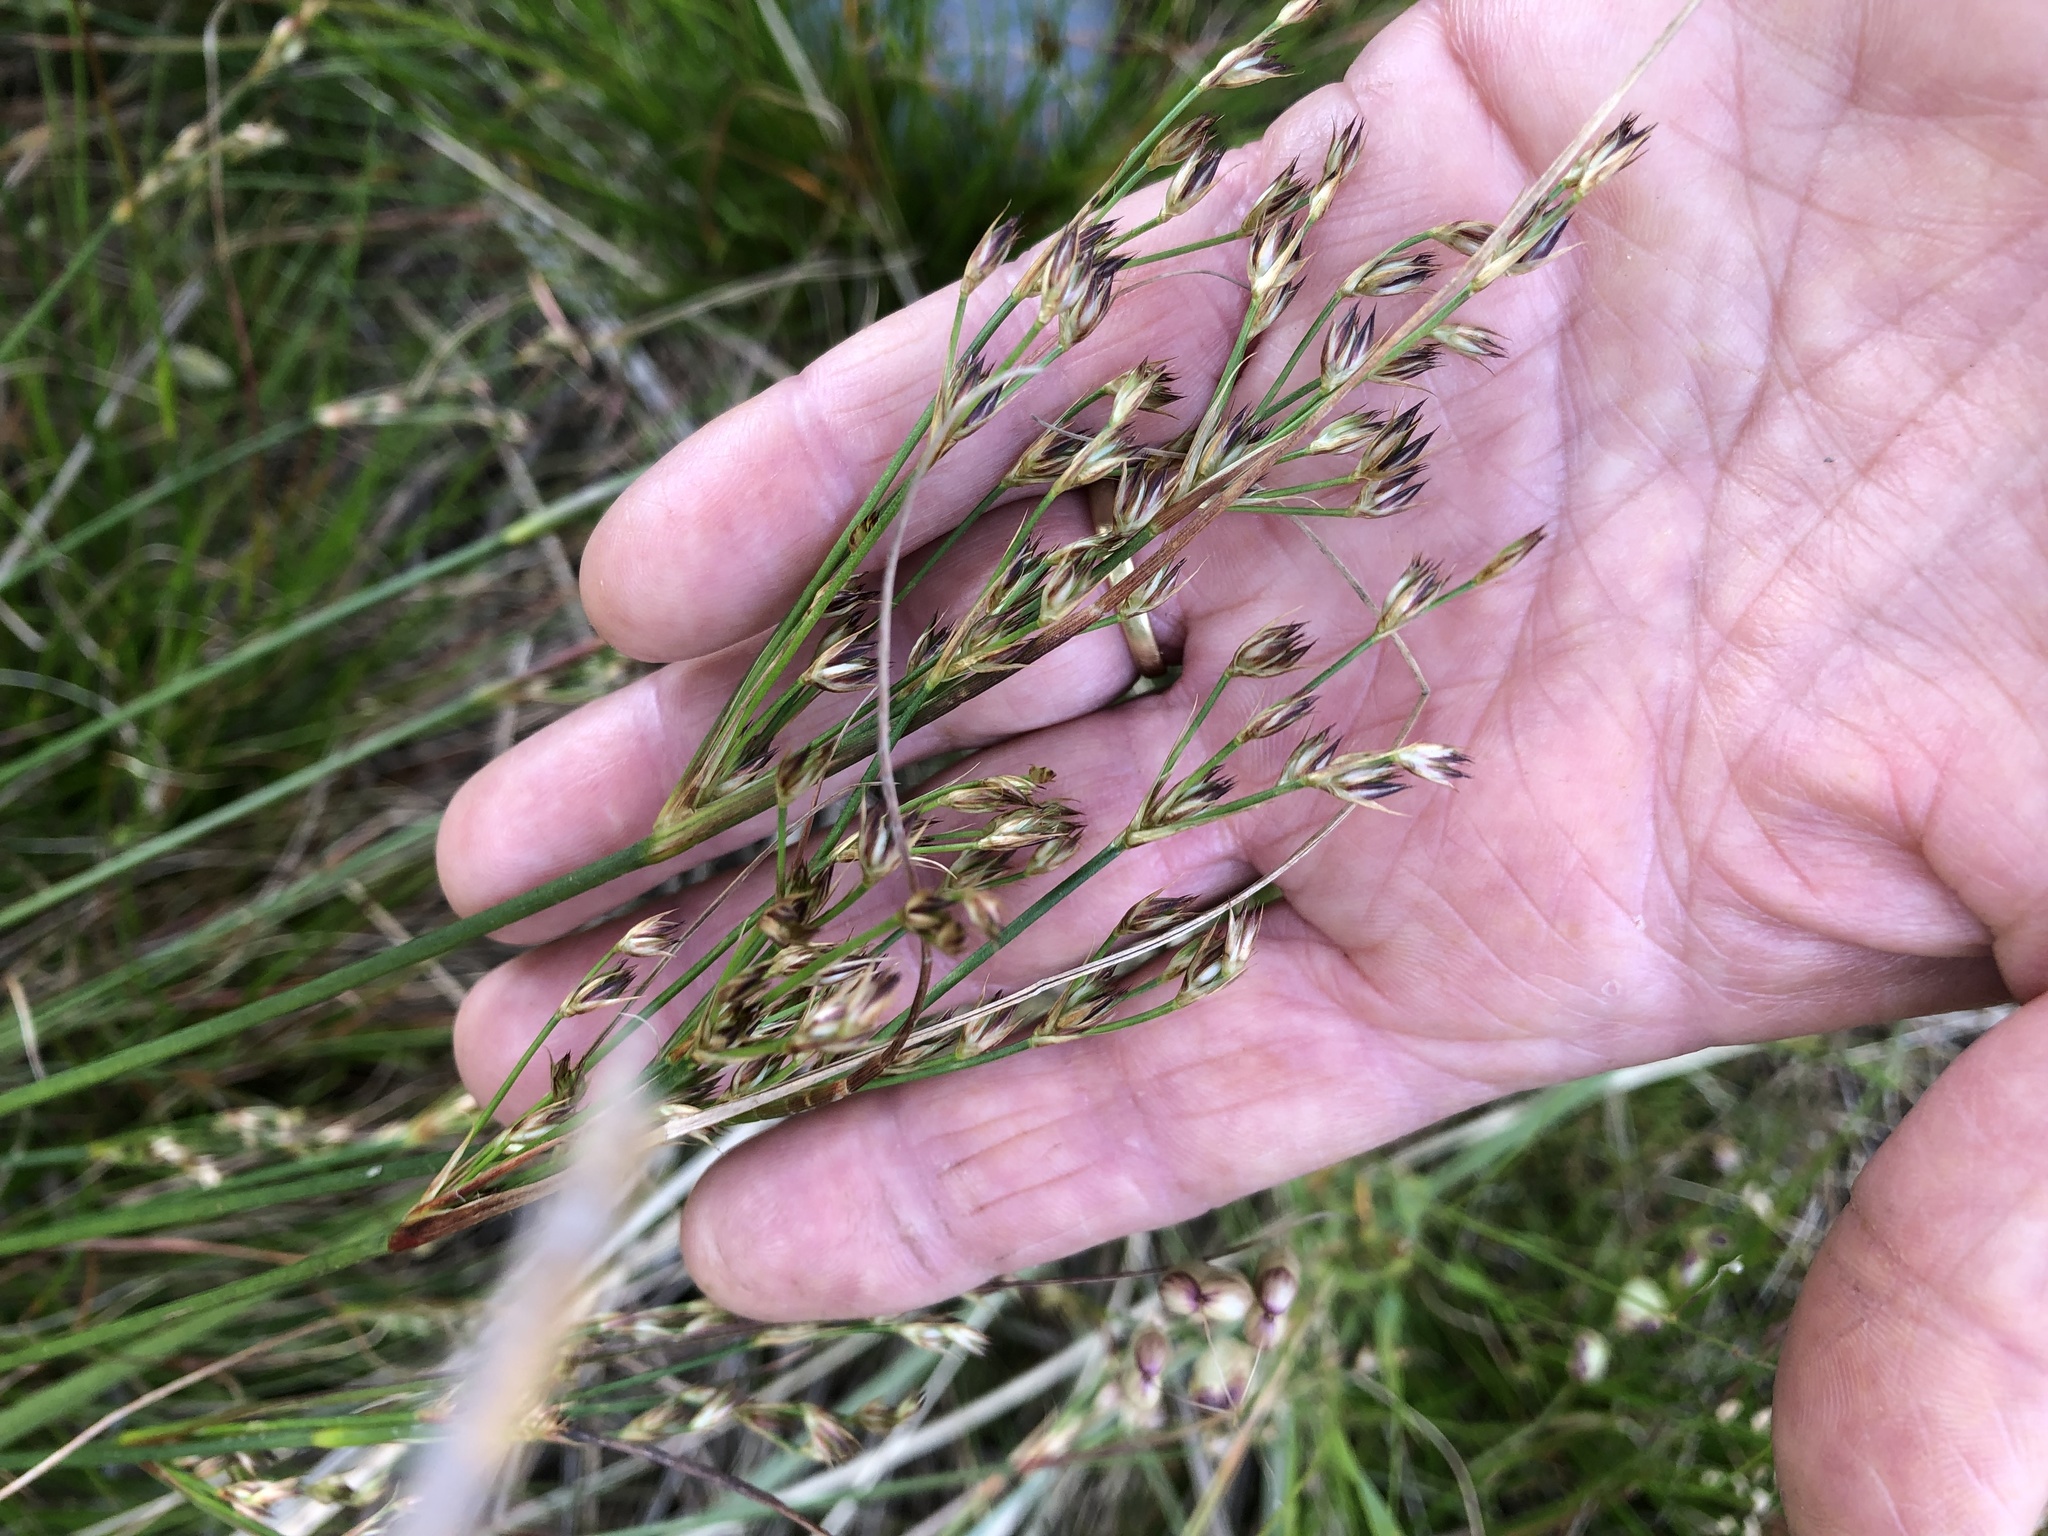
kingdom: Plantae
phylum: Tracheophyta
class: Liliopsida
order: Poales
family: Juncaceae
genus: Juncus
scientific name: Juncus capensis
